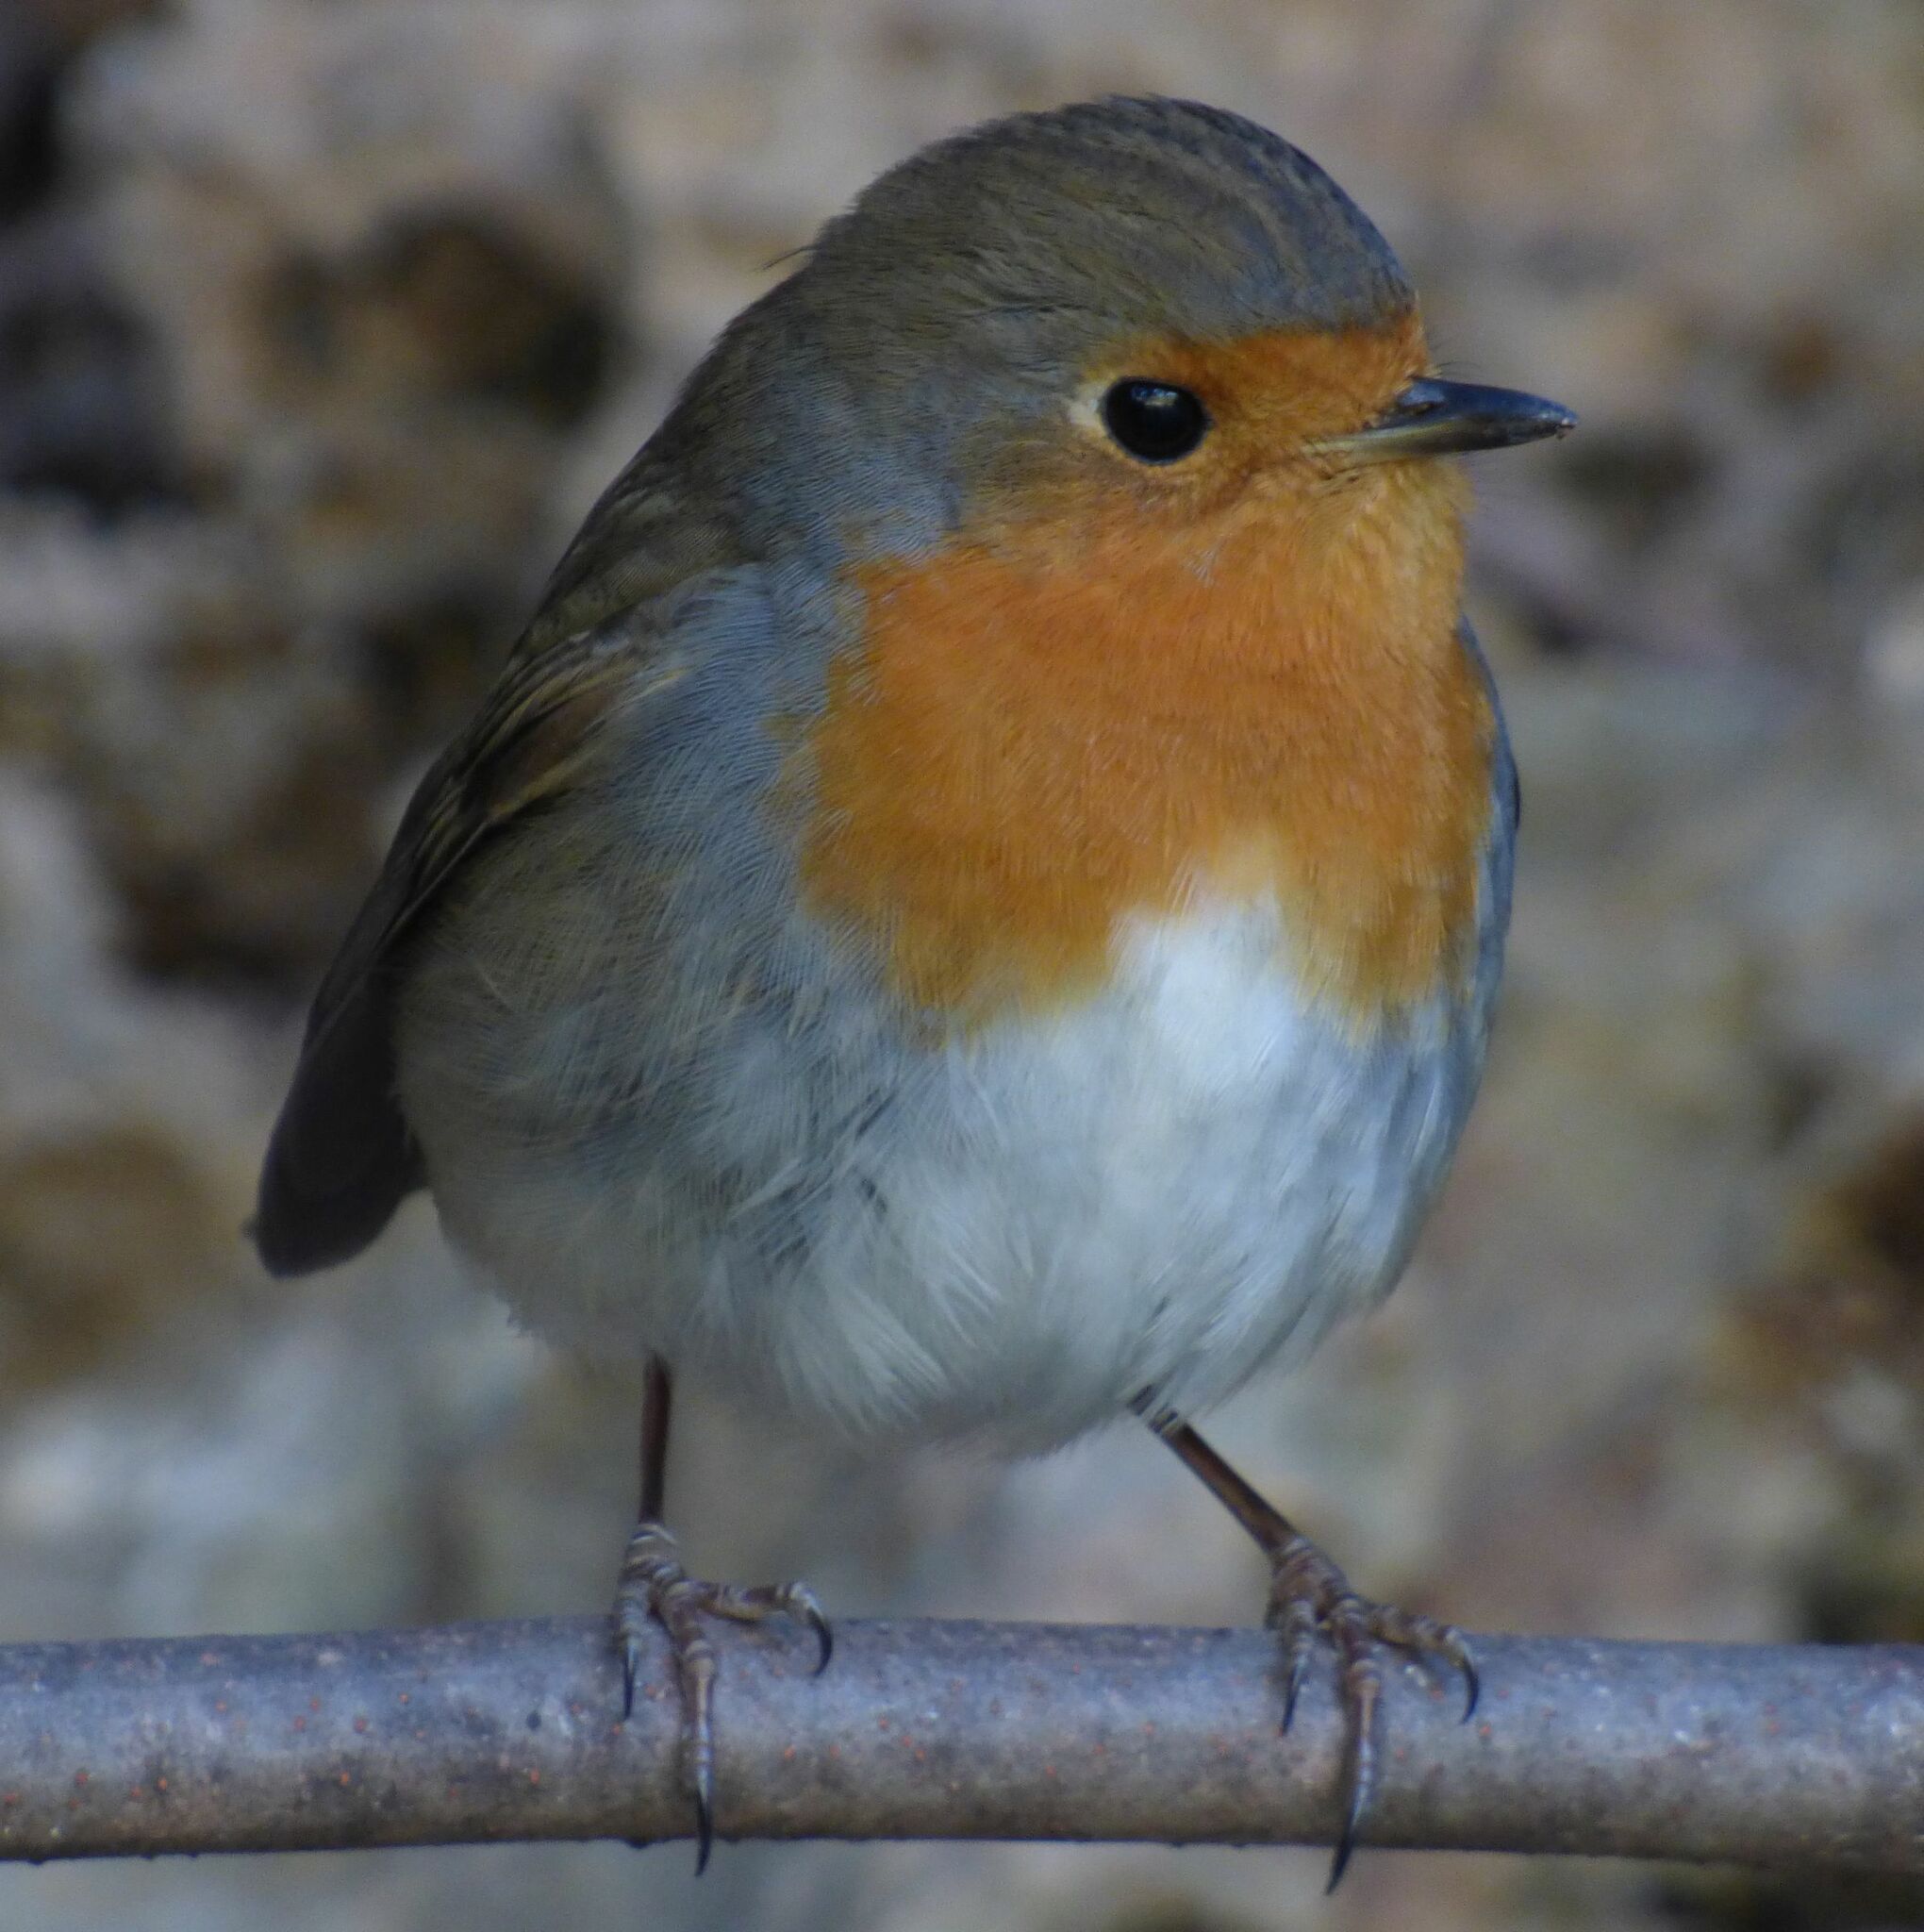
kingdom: Animalia
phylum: Chordata
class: Aves
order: Passeriformes
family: Muscicapidae
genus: Erithacus
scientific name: Erithacus rubecula
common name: European robin
